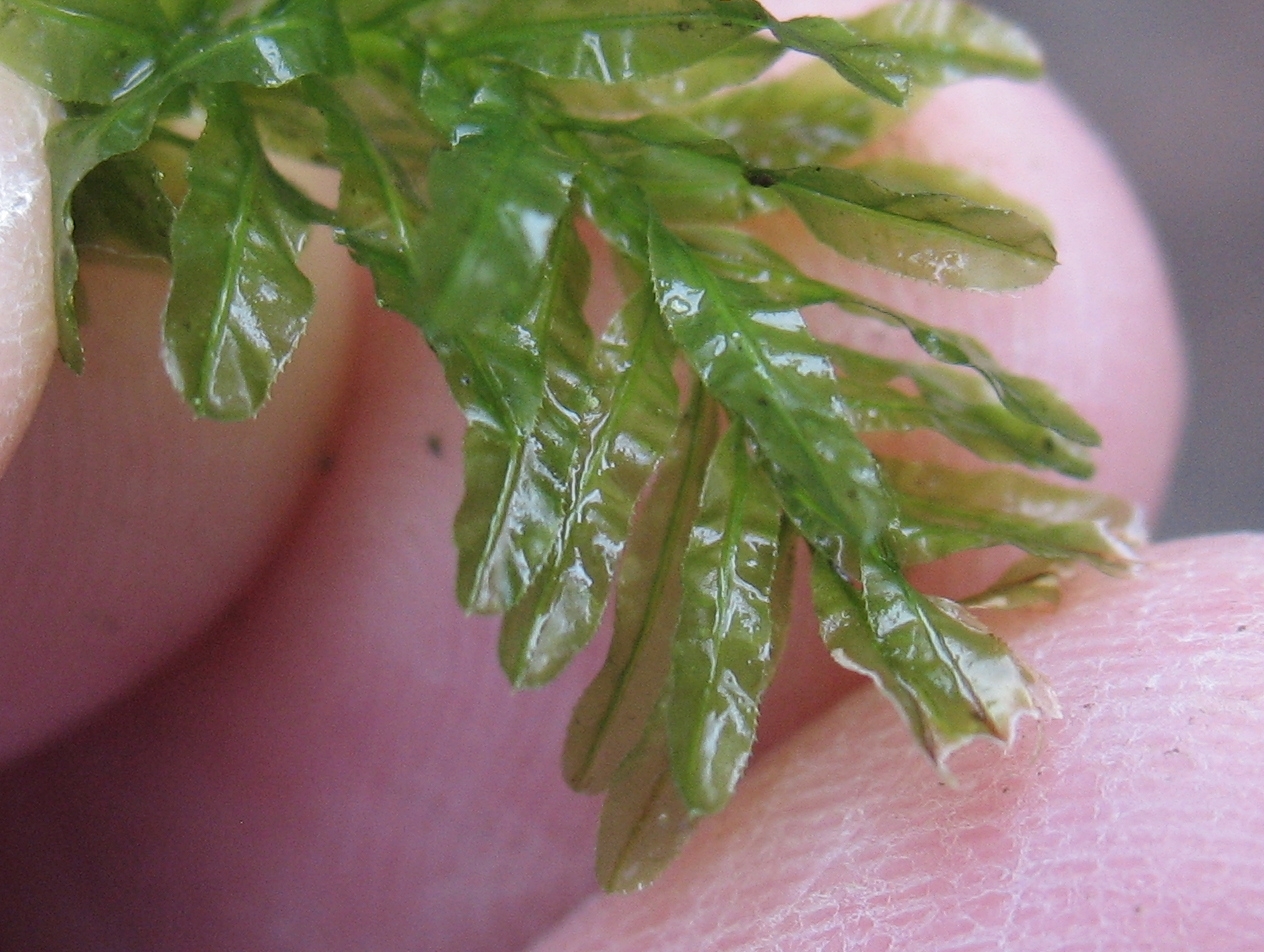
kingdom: Plantae
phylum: Bryophyta
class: Bryopsida
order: Bryales
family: Mniaceae
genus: Plagiomnium
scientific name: Plagiomnium undulatum
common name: Hart's-tongue thyme-moss
